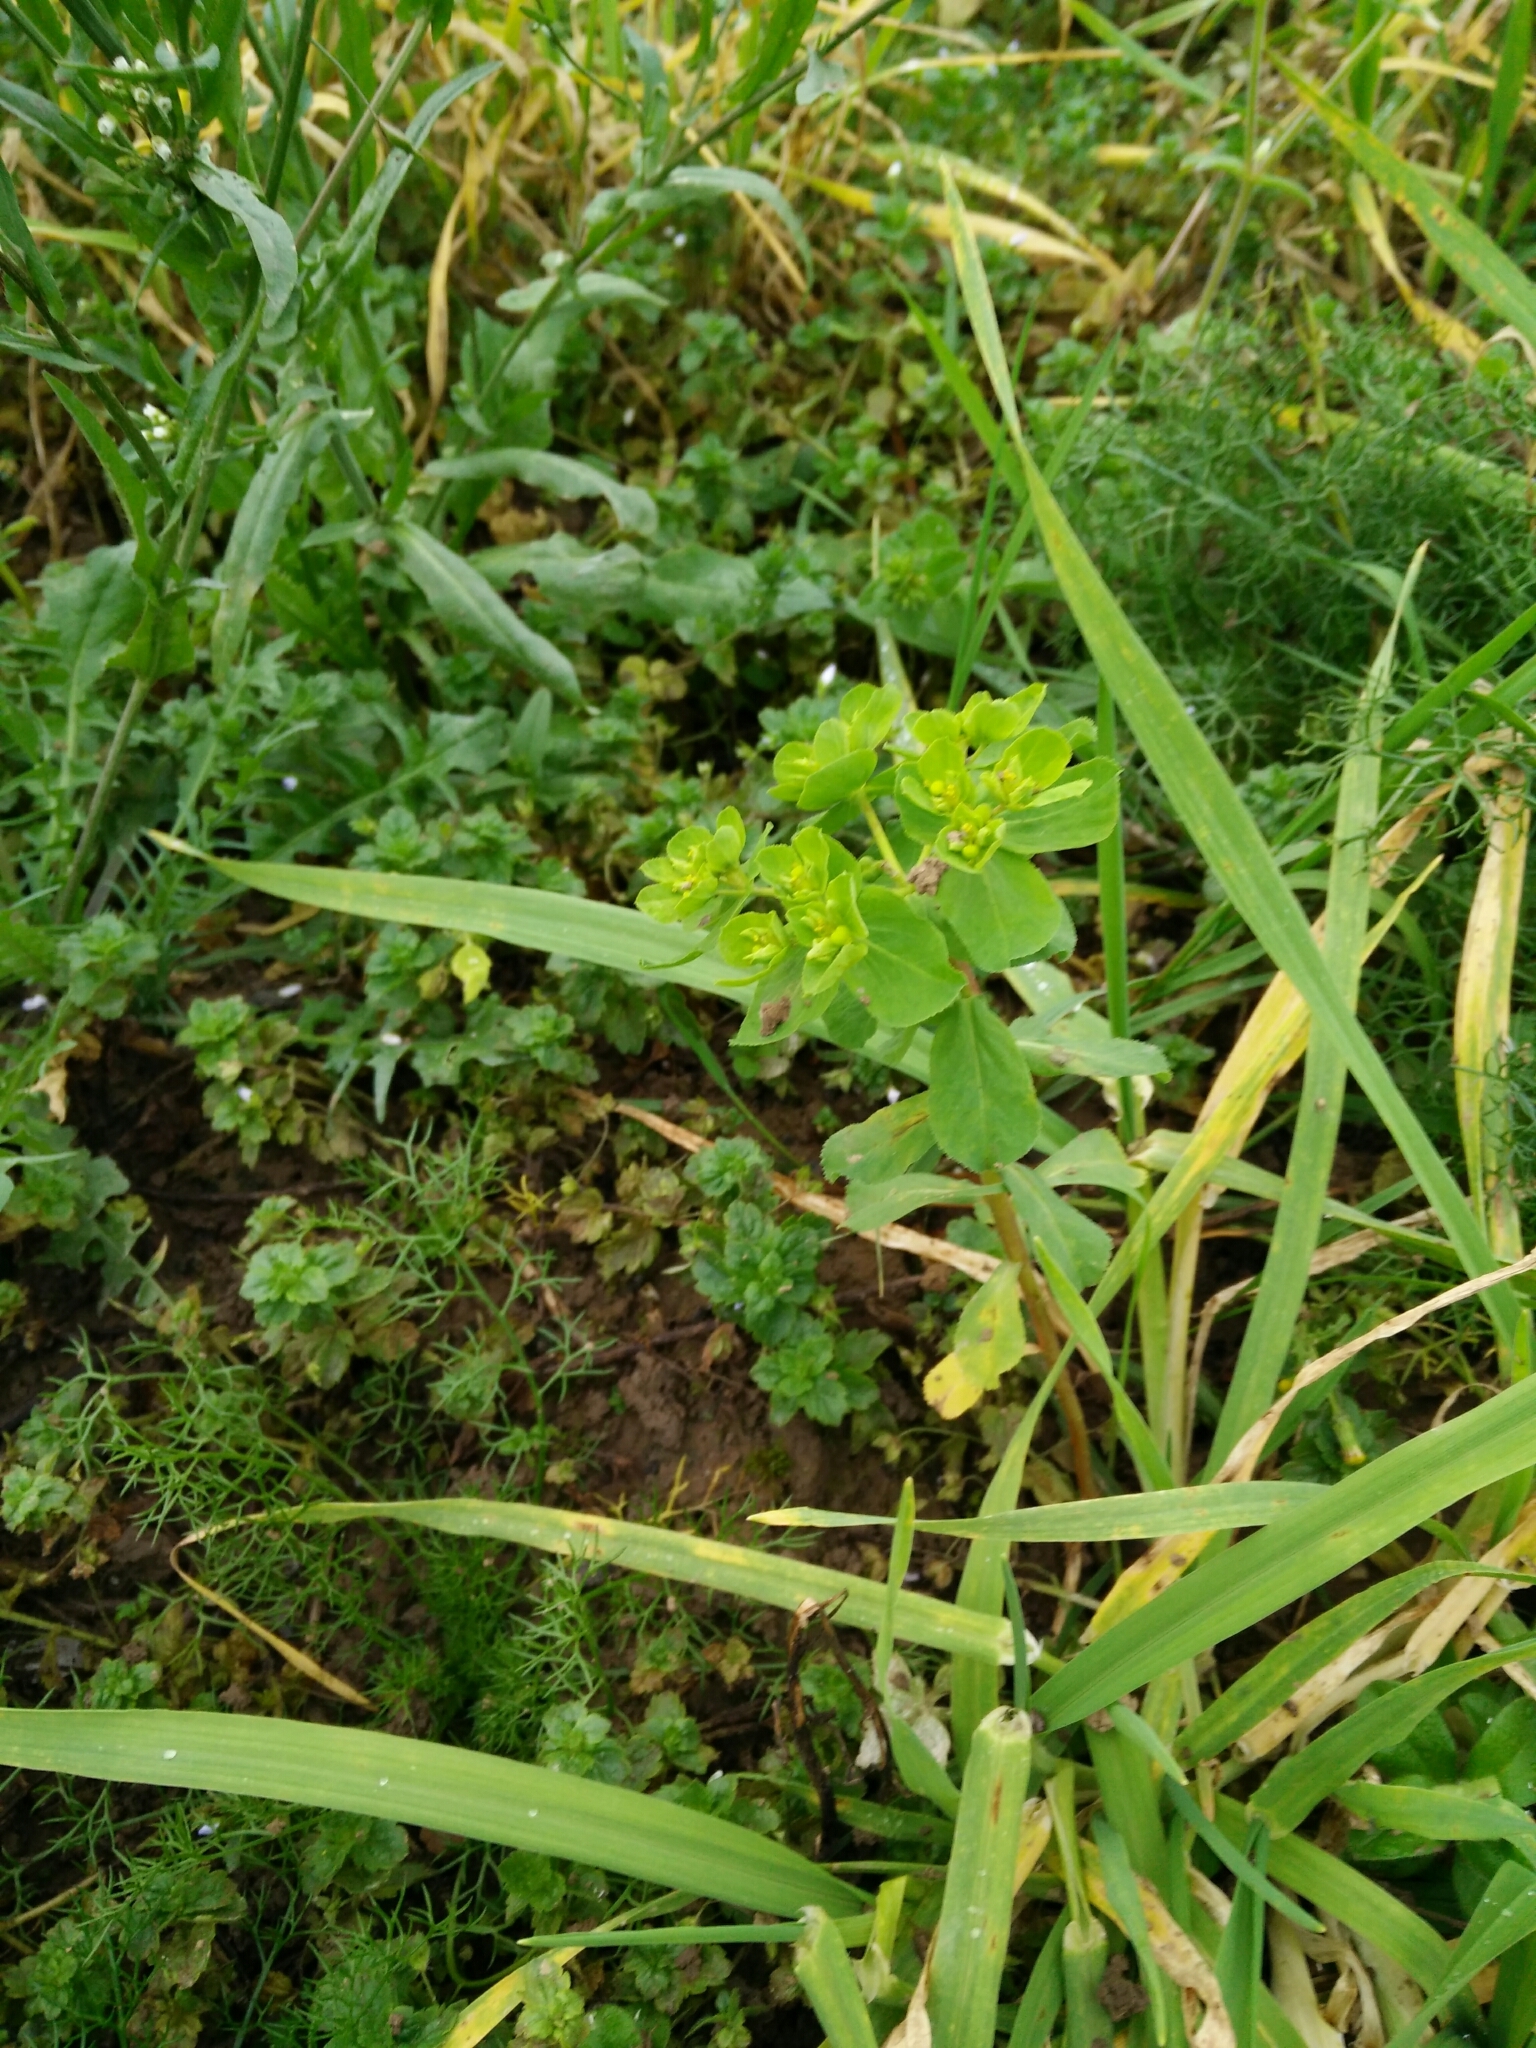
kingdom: Plantae
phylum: Tracheophyta
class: Magnoliopsida
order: Malpighiales
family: Euphorbiaceae
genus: Euphorbia
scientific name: Euphorbia helioscopia
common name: Sun spurge
